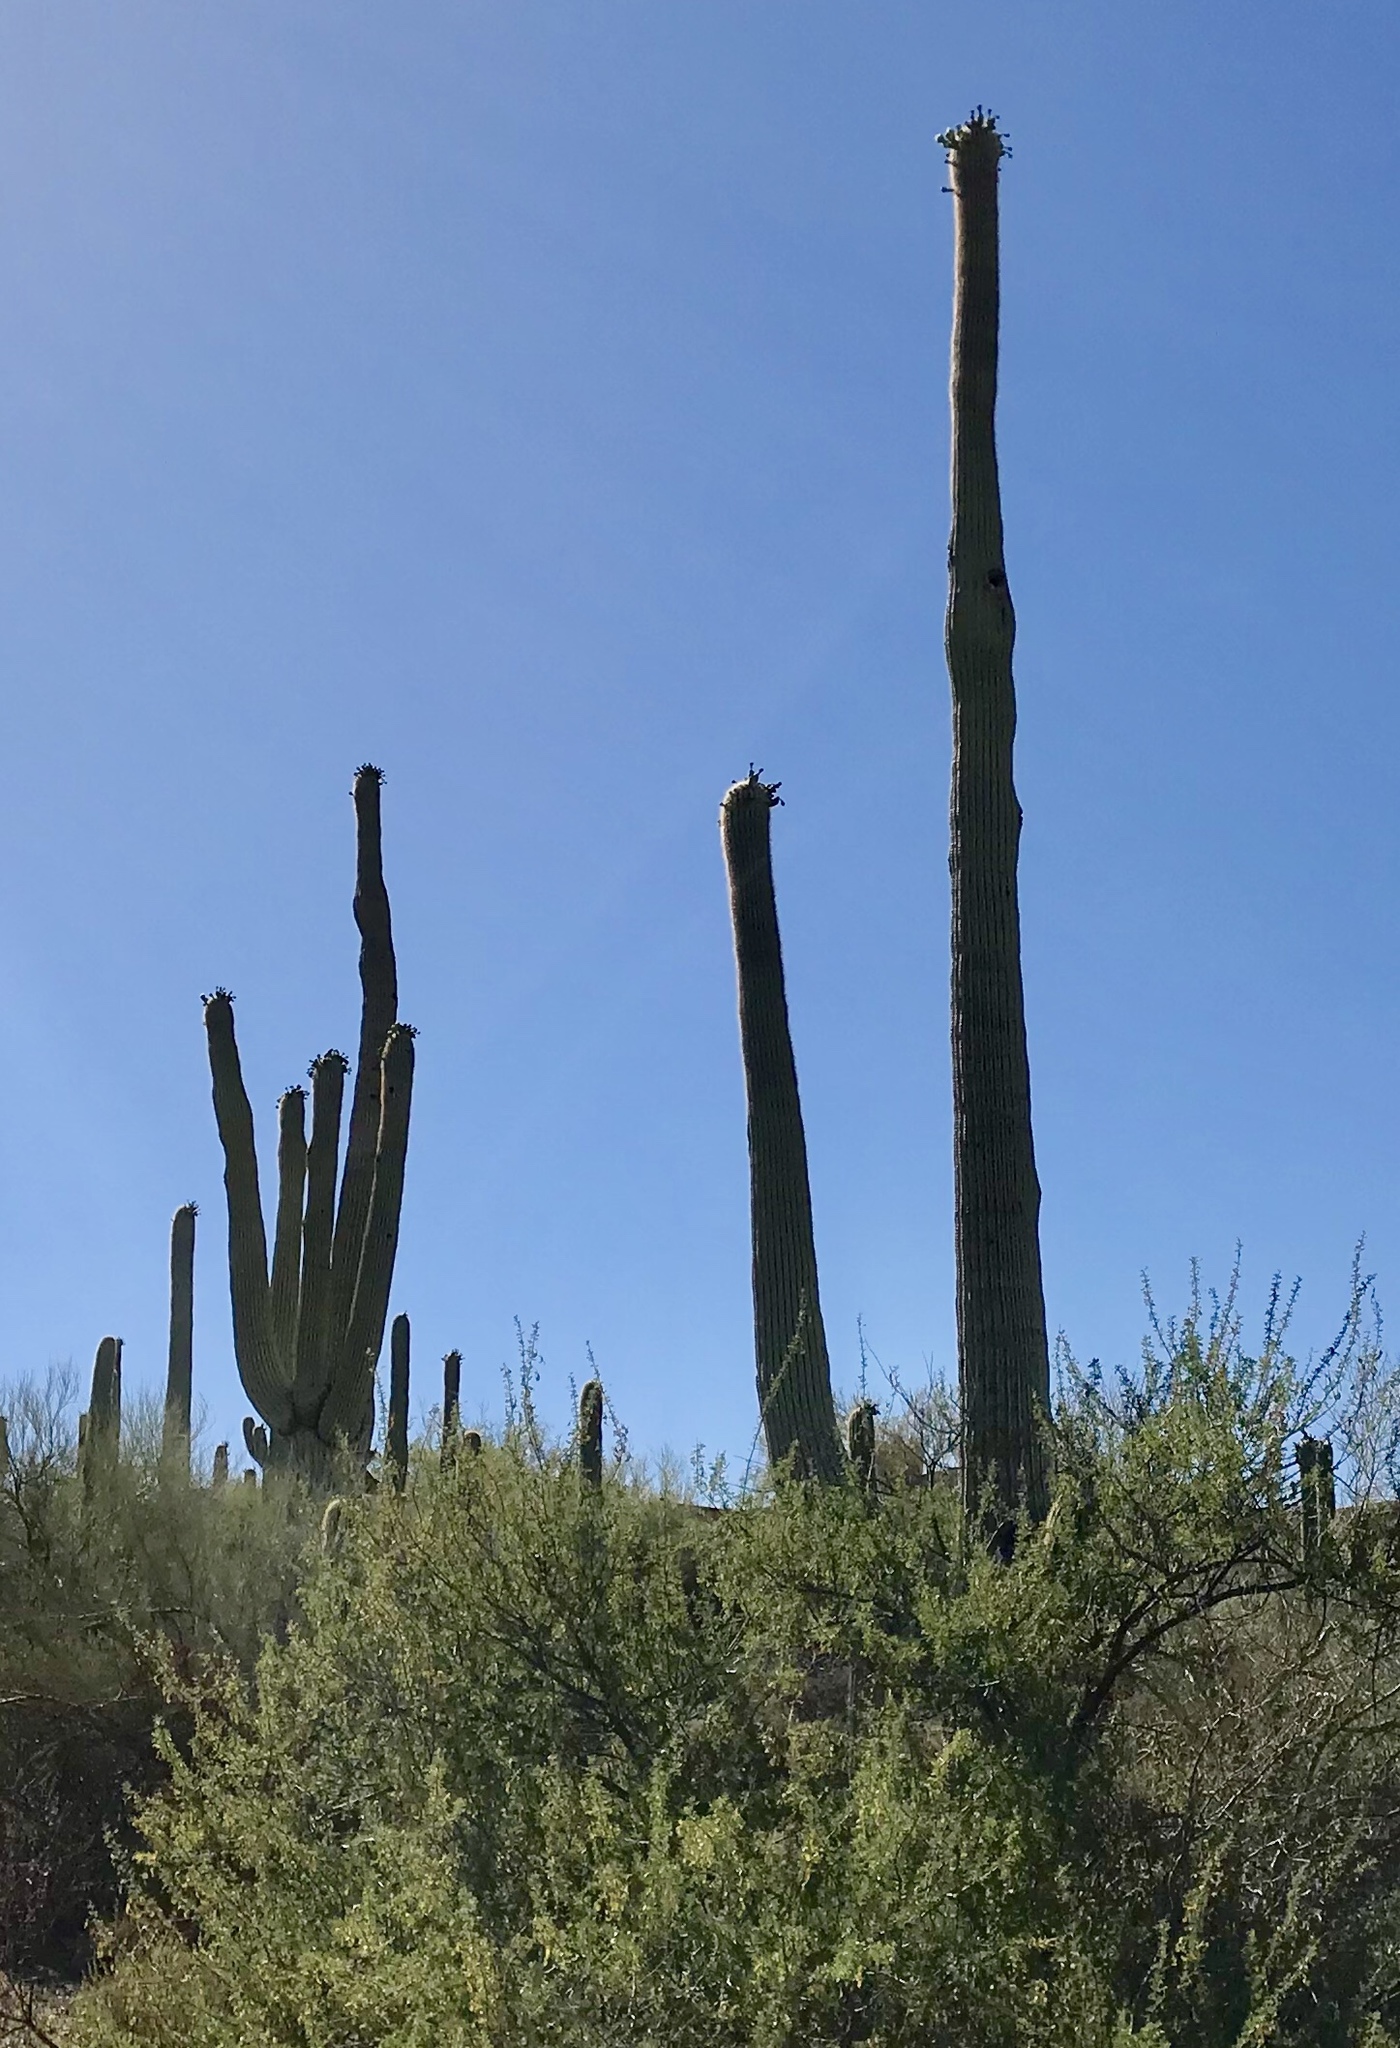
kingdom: Plantae
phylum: Tracheophyta
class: Magnoliopsida
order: Caryophyllales
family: Cactaceae
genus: Carnegiea
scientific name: Carnegiea gigantea
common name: Saguaro
